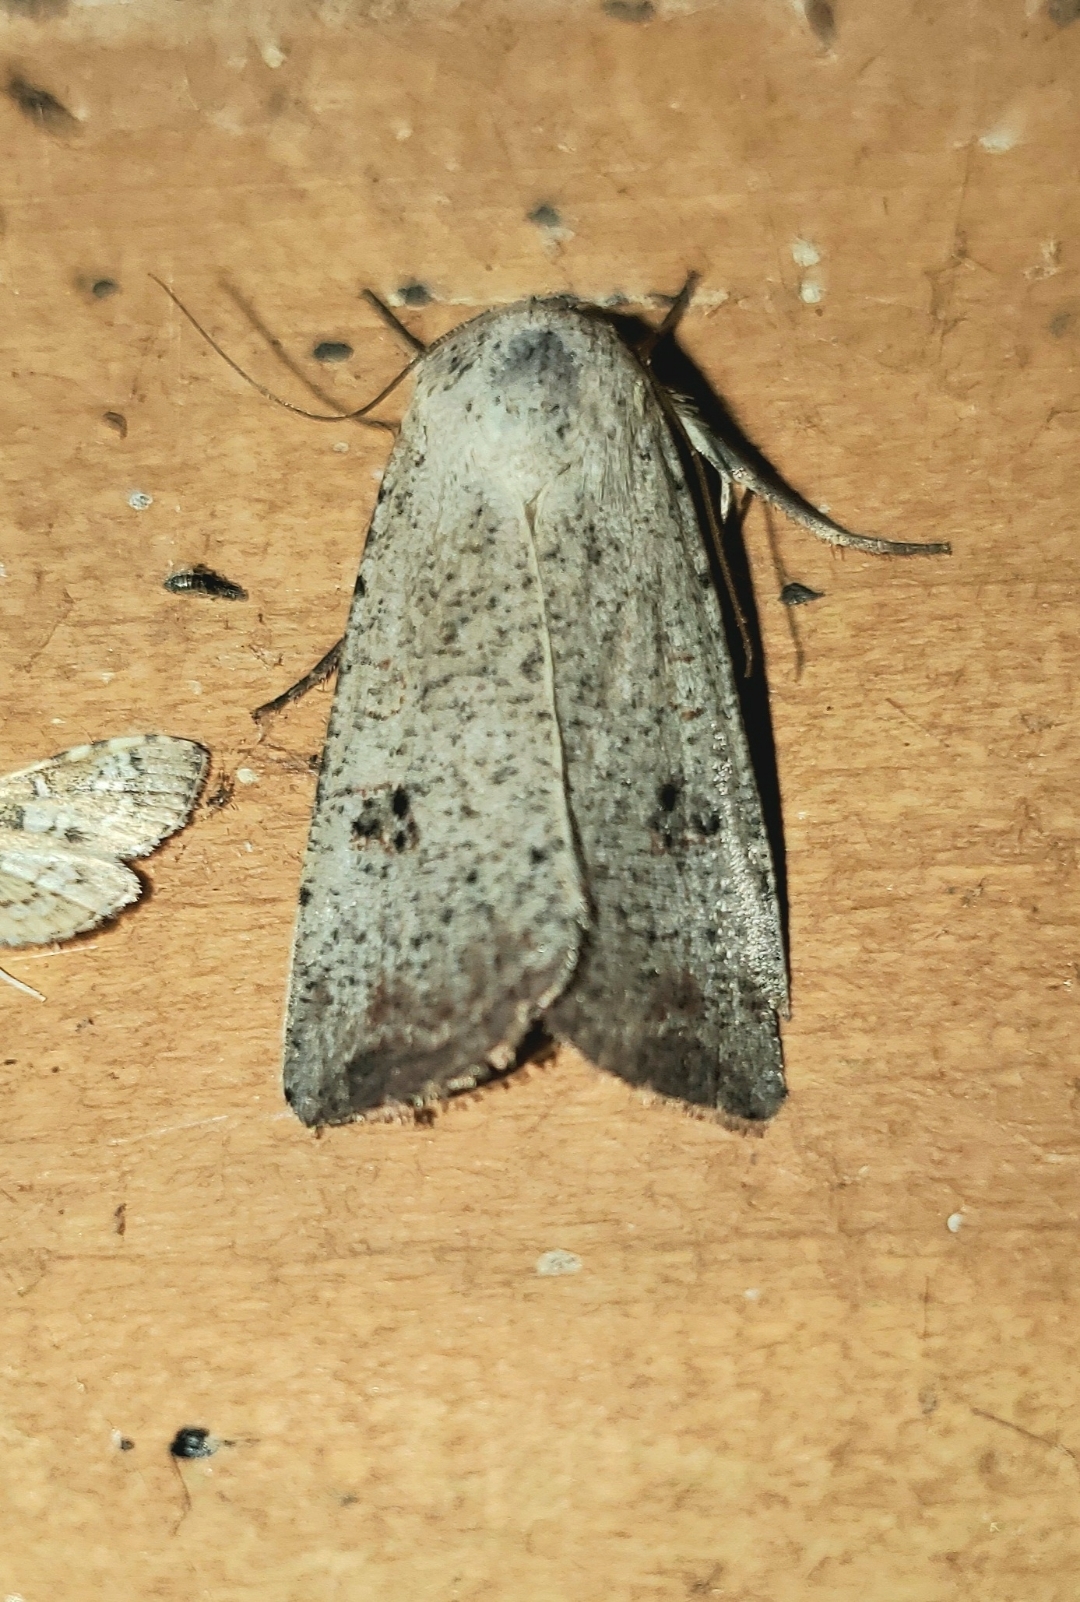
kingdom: Animalia
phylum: Arthropoda
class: Insecta
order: Lepidoptera
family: Noctuidae
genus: Anicla
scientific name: Anicla infecta
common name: Green cutworm
